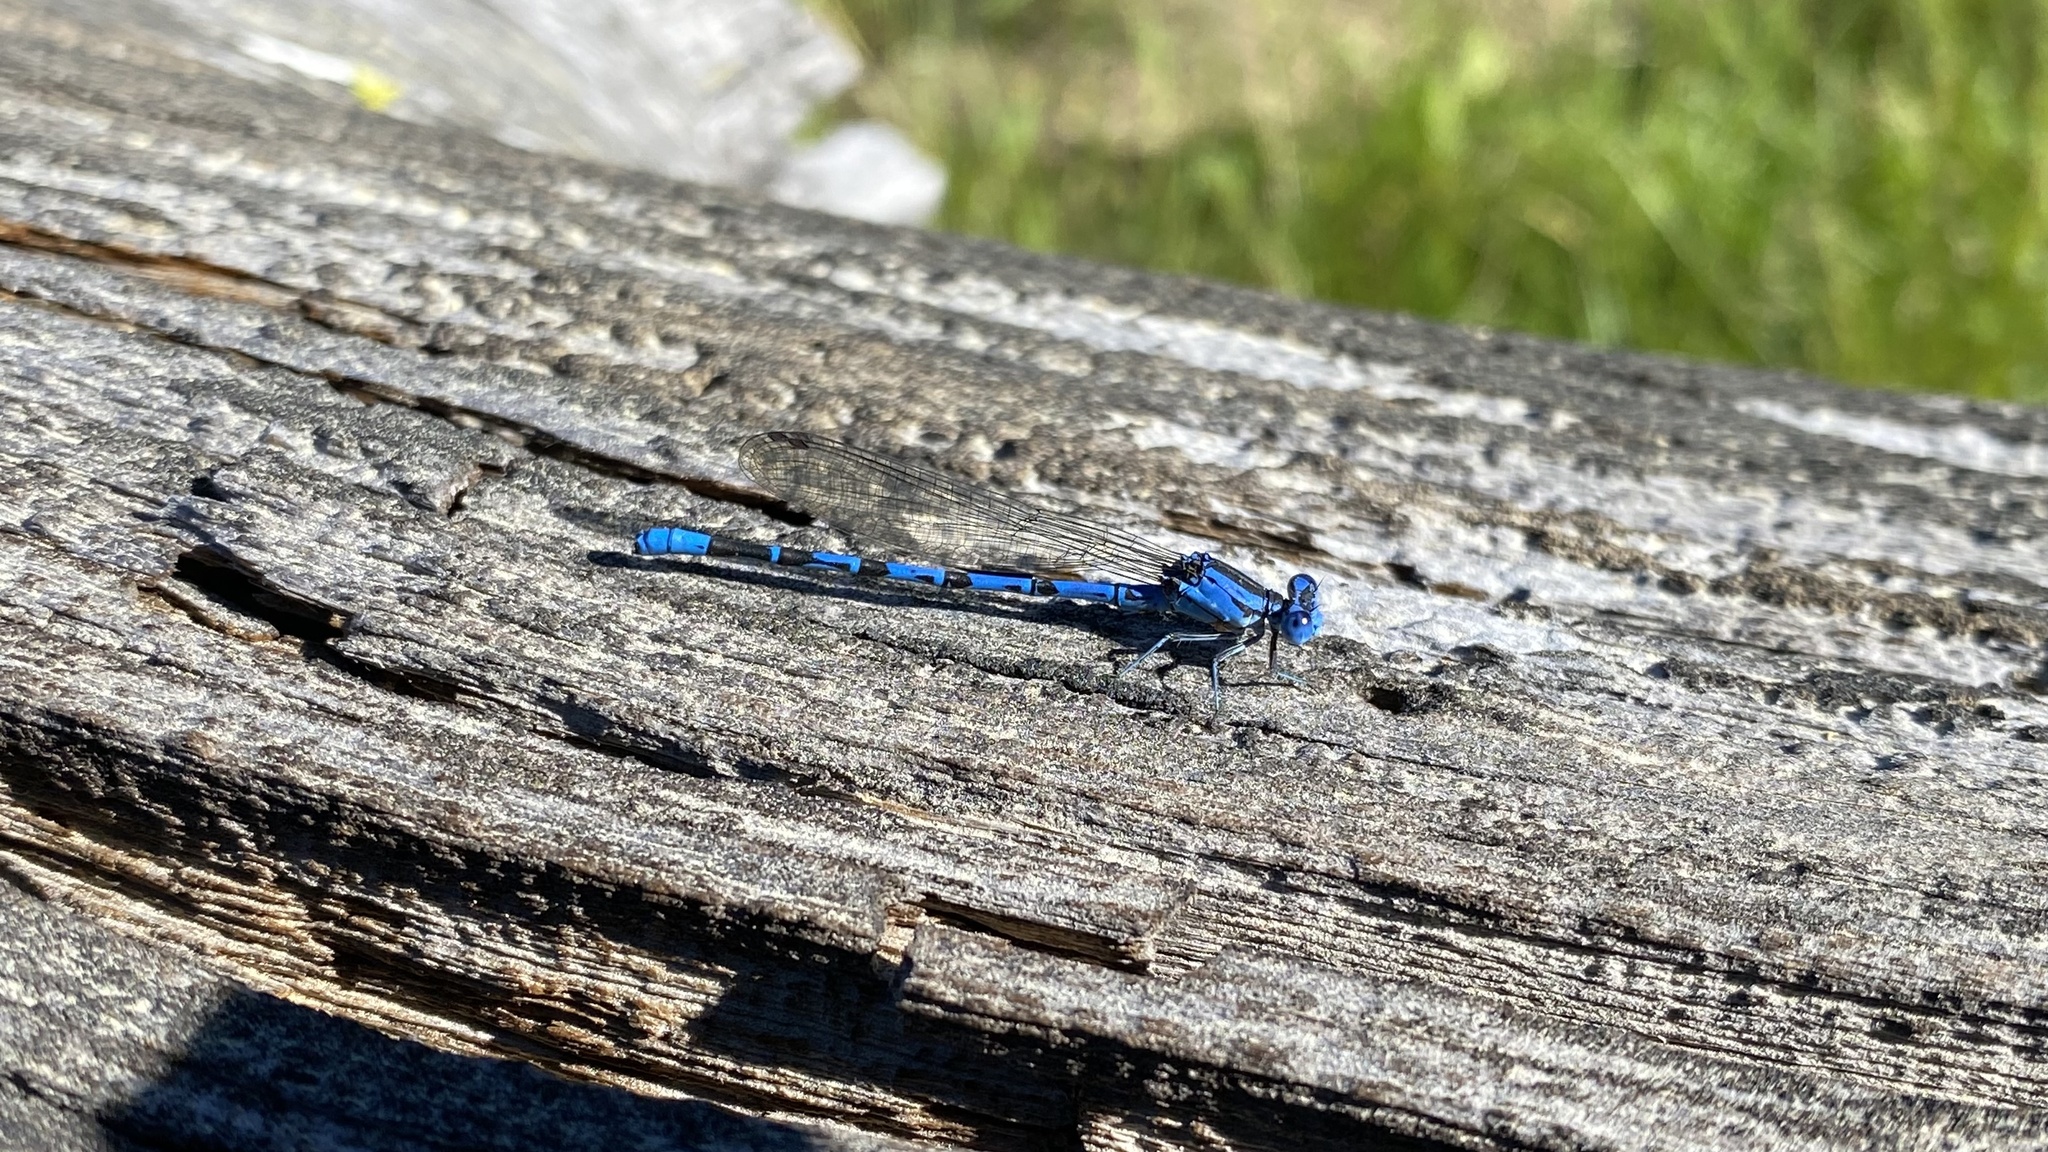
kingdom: Animalia
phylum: Arthropoda
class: Insecta
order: Odonata
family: Coenagrionidae
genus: Argia
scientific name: Argia vivida
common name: Vivid dancer
